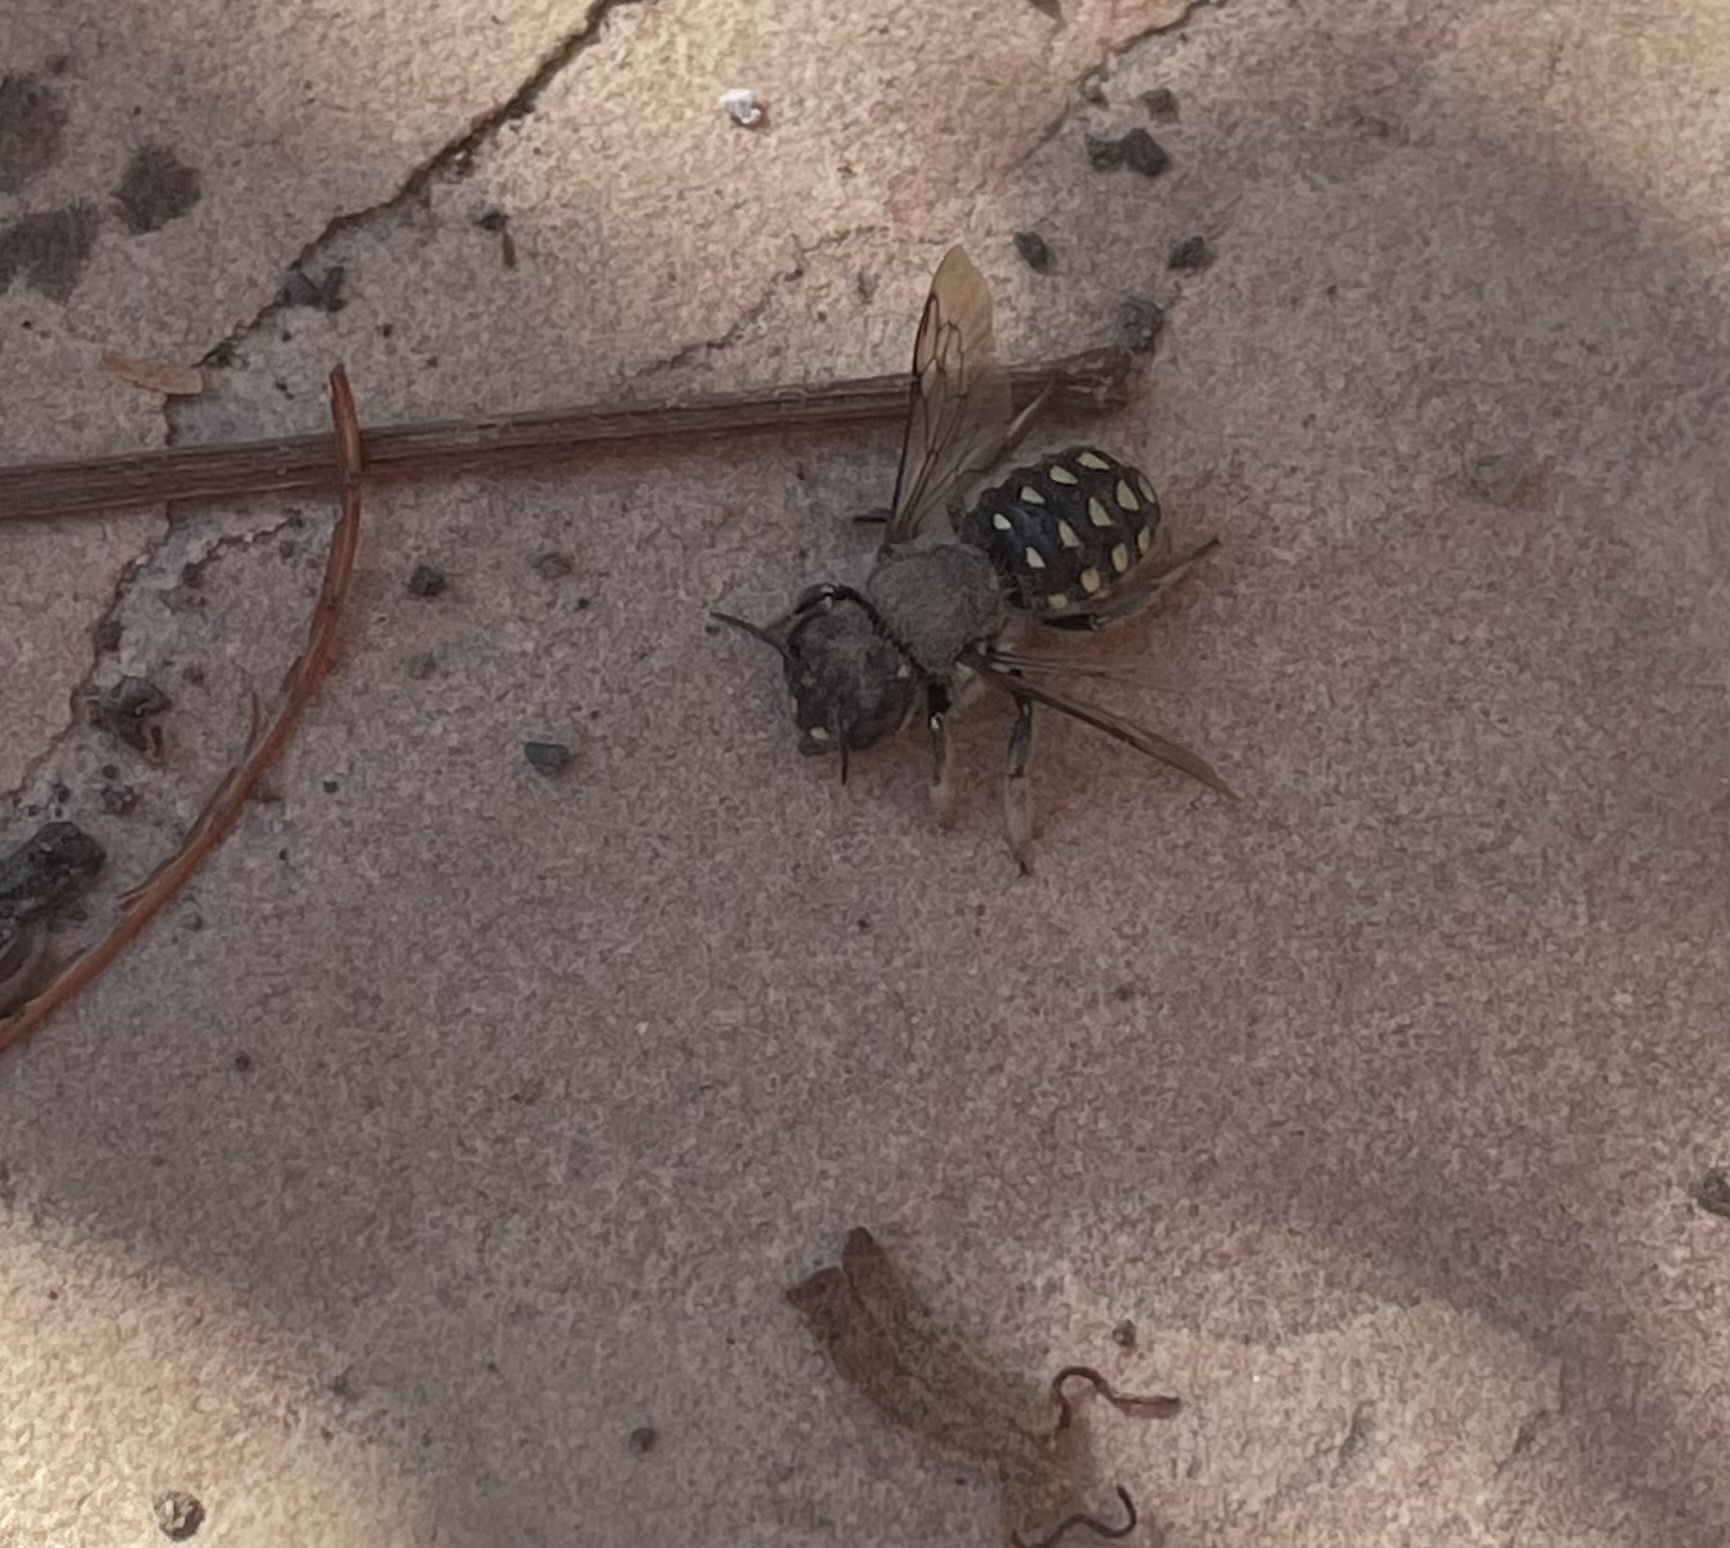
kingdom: Animalia
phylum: Arthropoda
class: Insecta
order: Hymenoptera
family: Megachilidae
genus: Anthidium
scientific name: Anthidium maculosum
